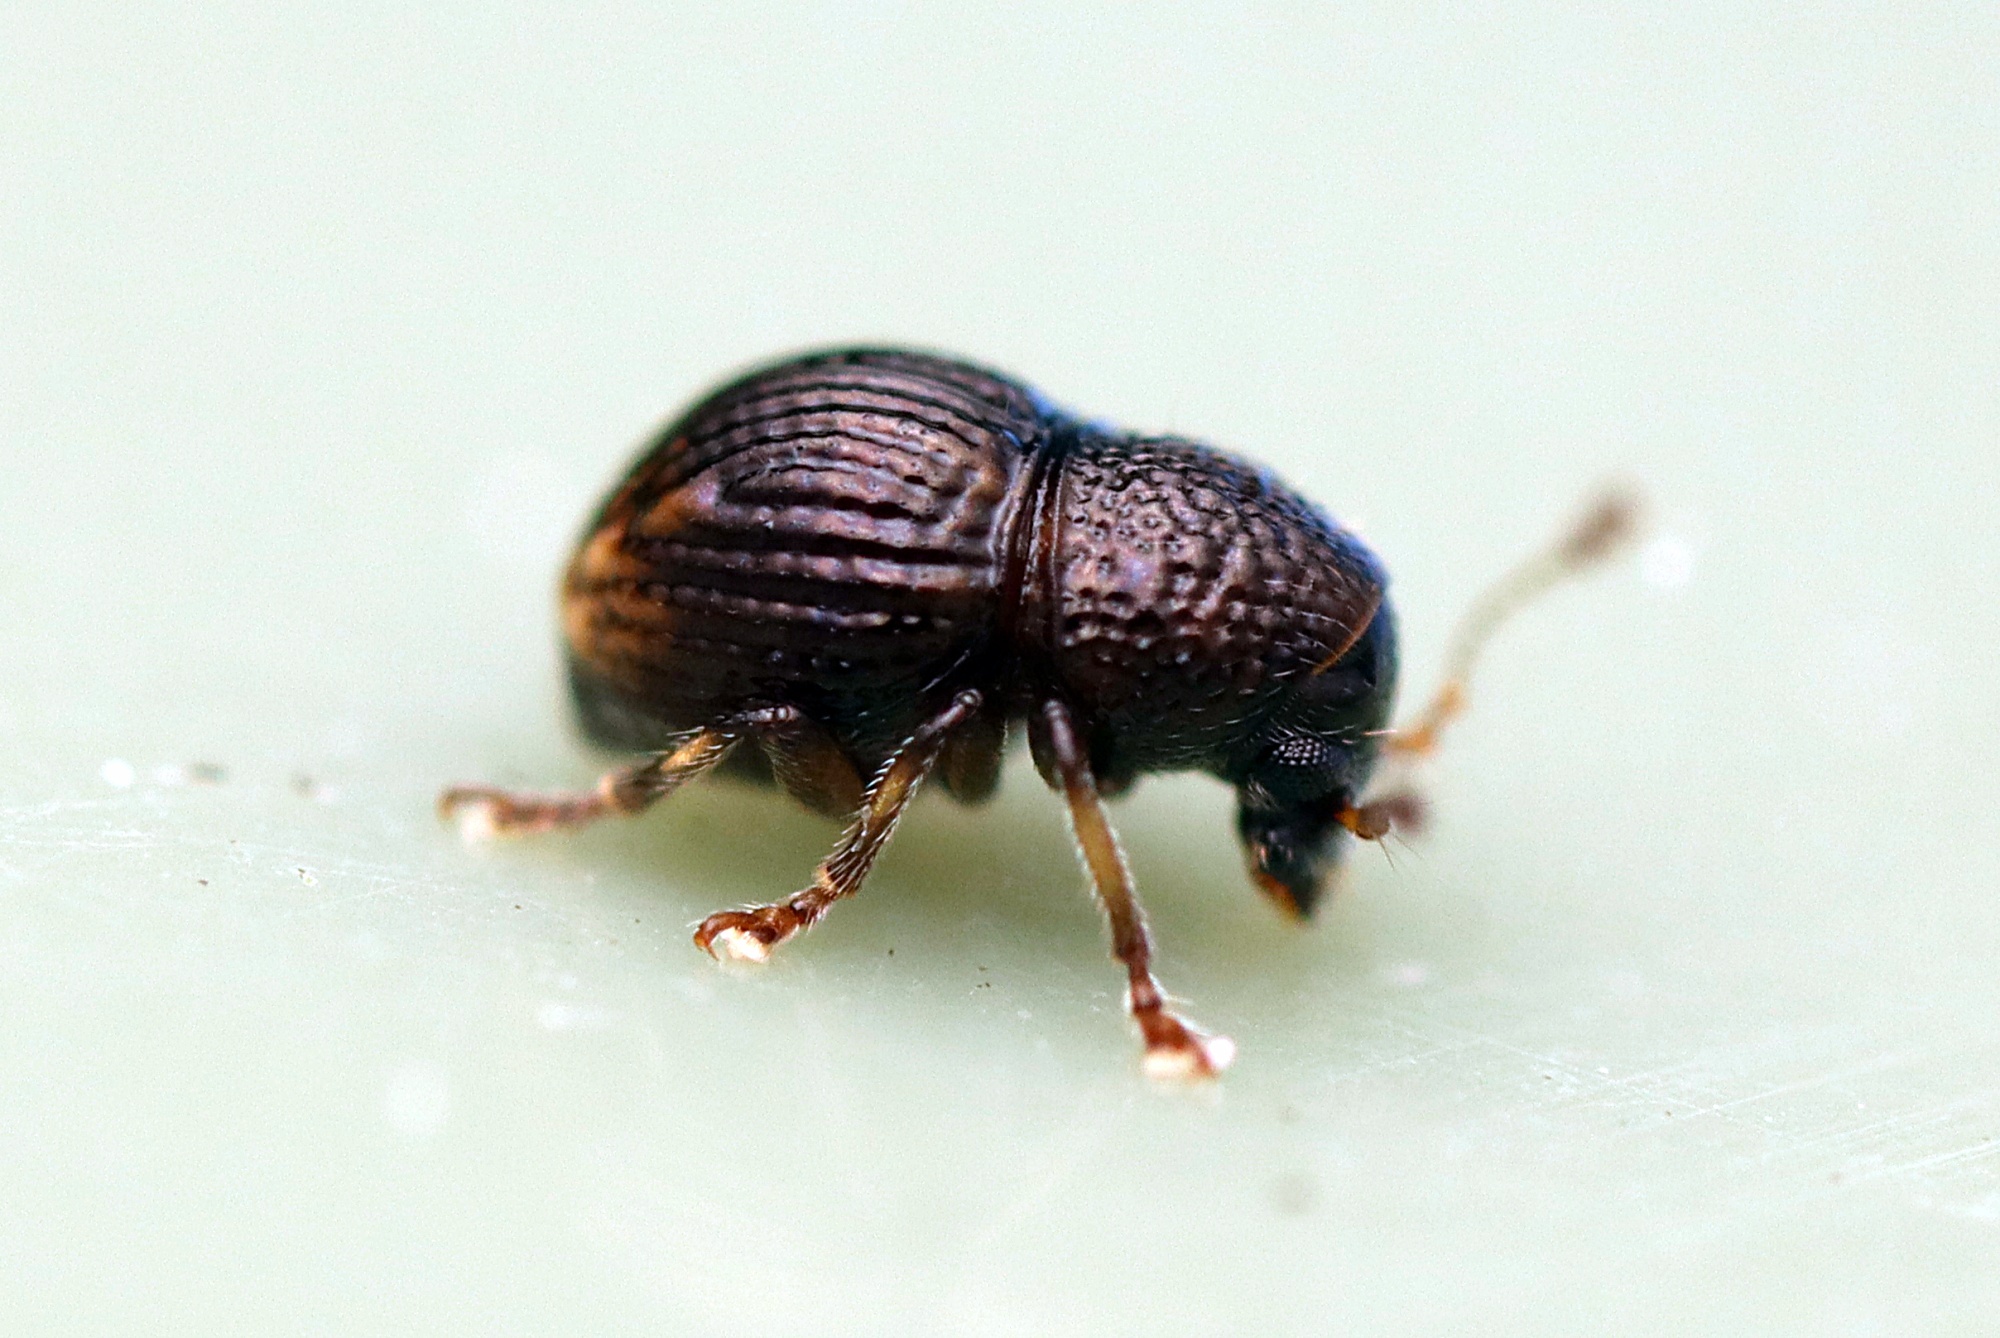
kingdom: Animalia
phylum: Arthropoda
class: Insecta
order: Coleoptera
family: Anthribidae
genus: Dysnocryptus
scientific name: Dysnocryptus rugosus
